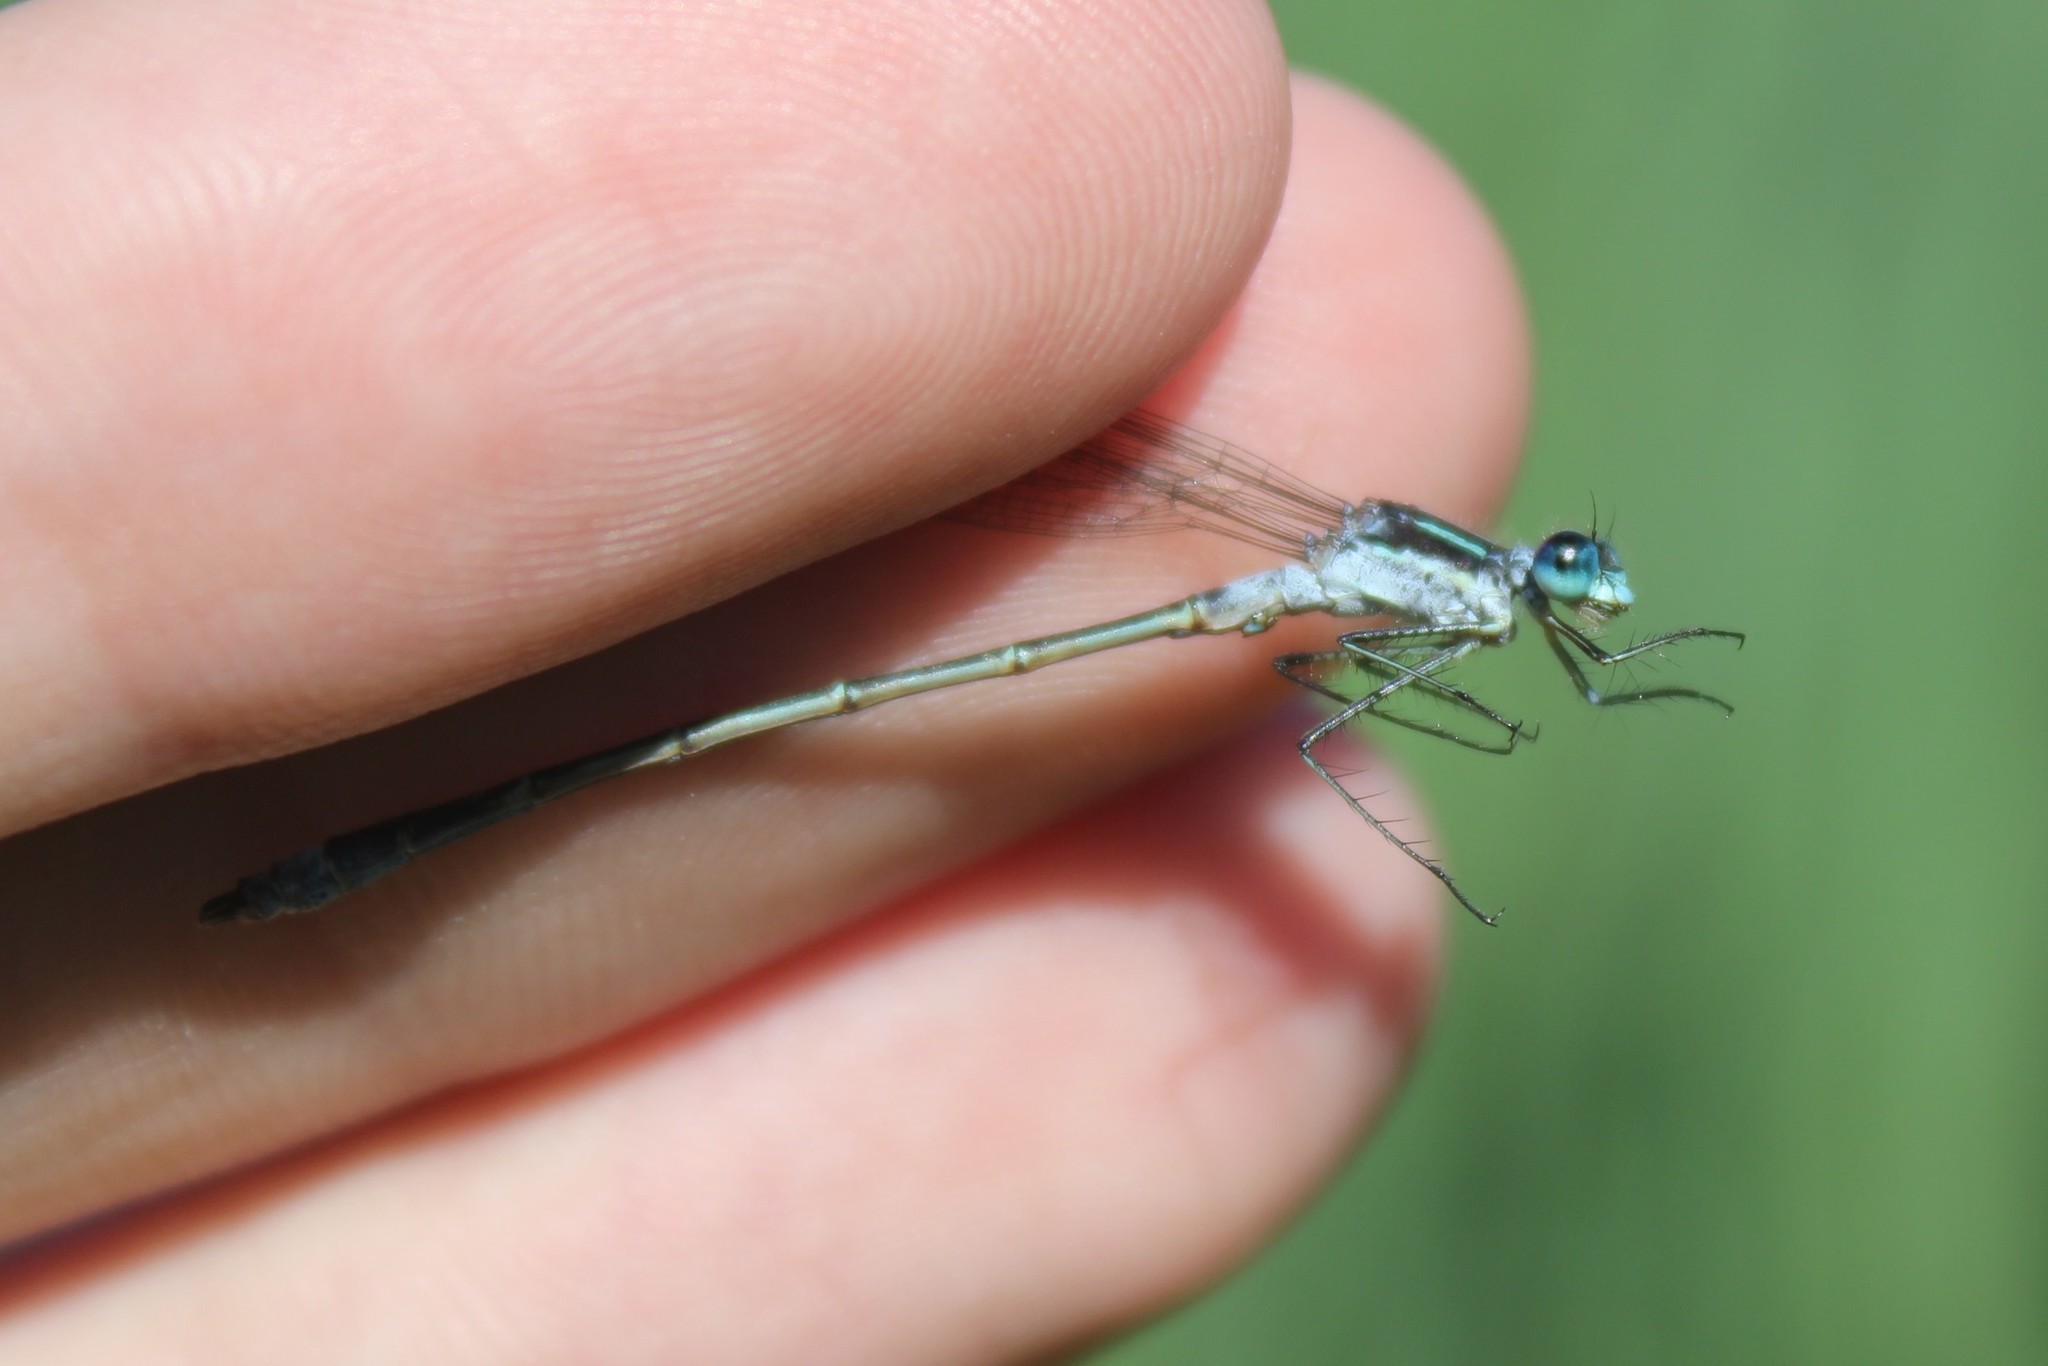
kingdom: Animalia
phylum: Arthropoda
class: Insecta
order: Odonata
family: Lestidae
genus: Lestes
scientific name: Lestes disjunctus
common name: Northern spreadwing
